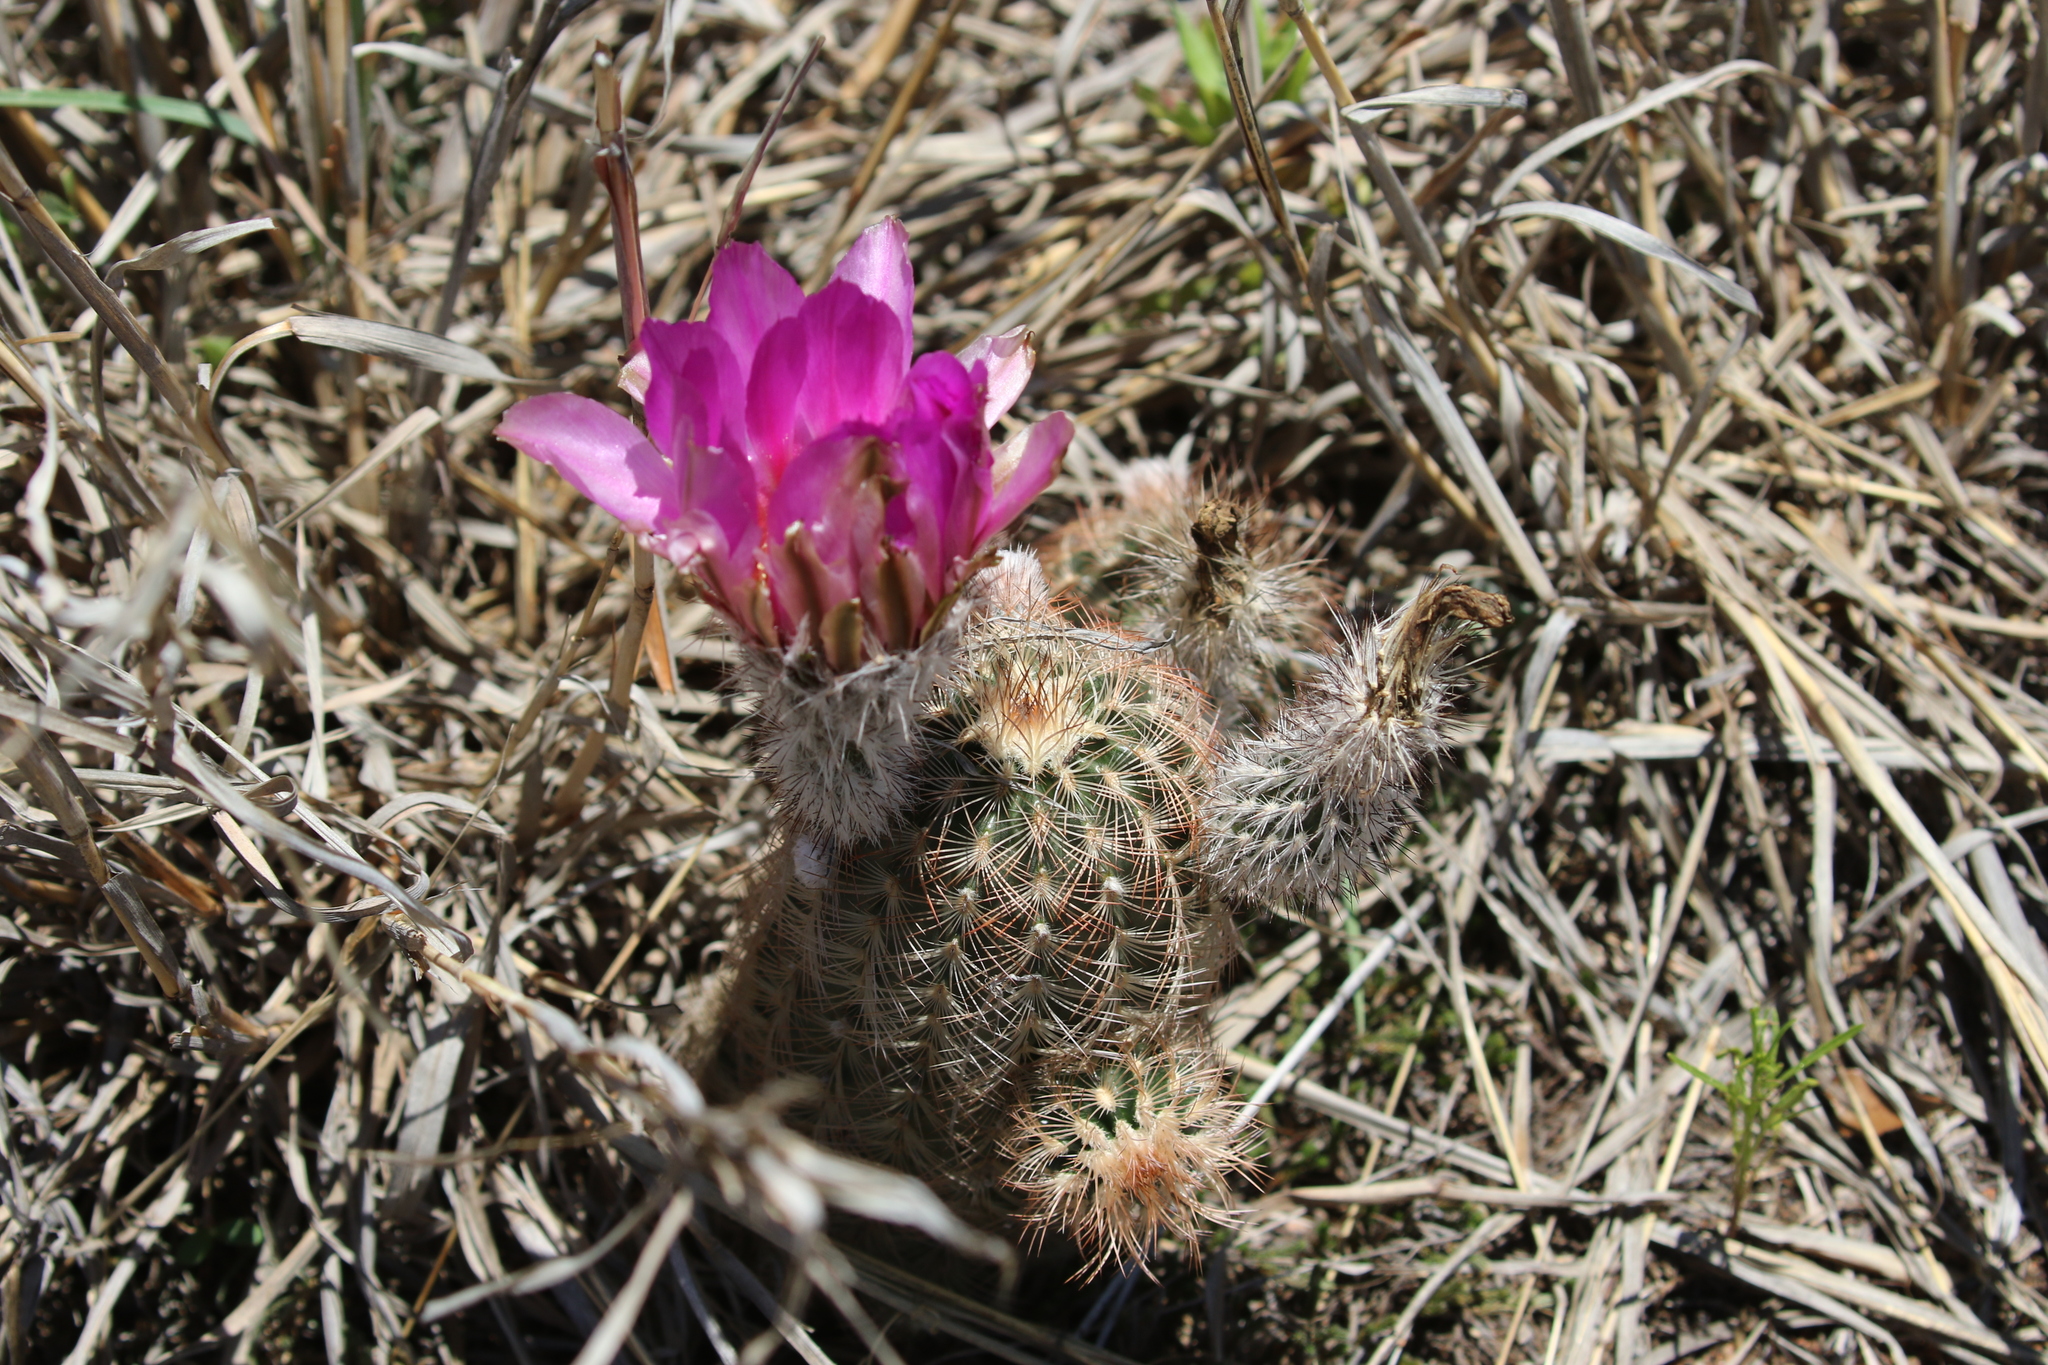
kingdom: Plantae
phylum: Tracheophyta
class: Magnoliopsida
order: Caryophyllales
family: Cactaceae
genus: Echinocereus
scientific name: Echinocereus reichenbachii
